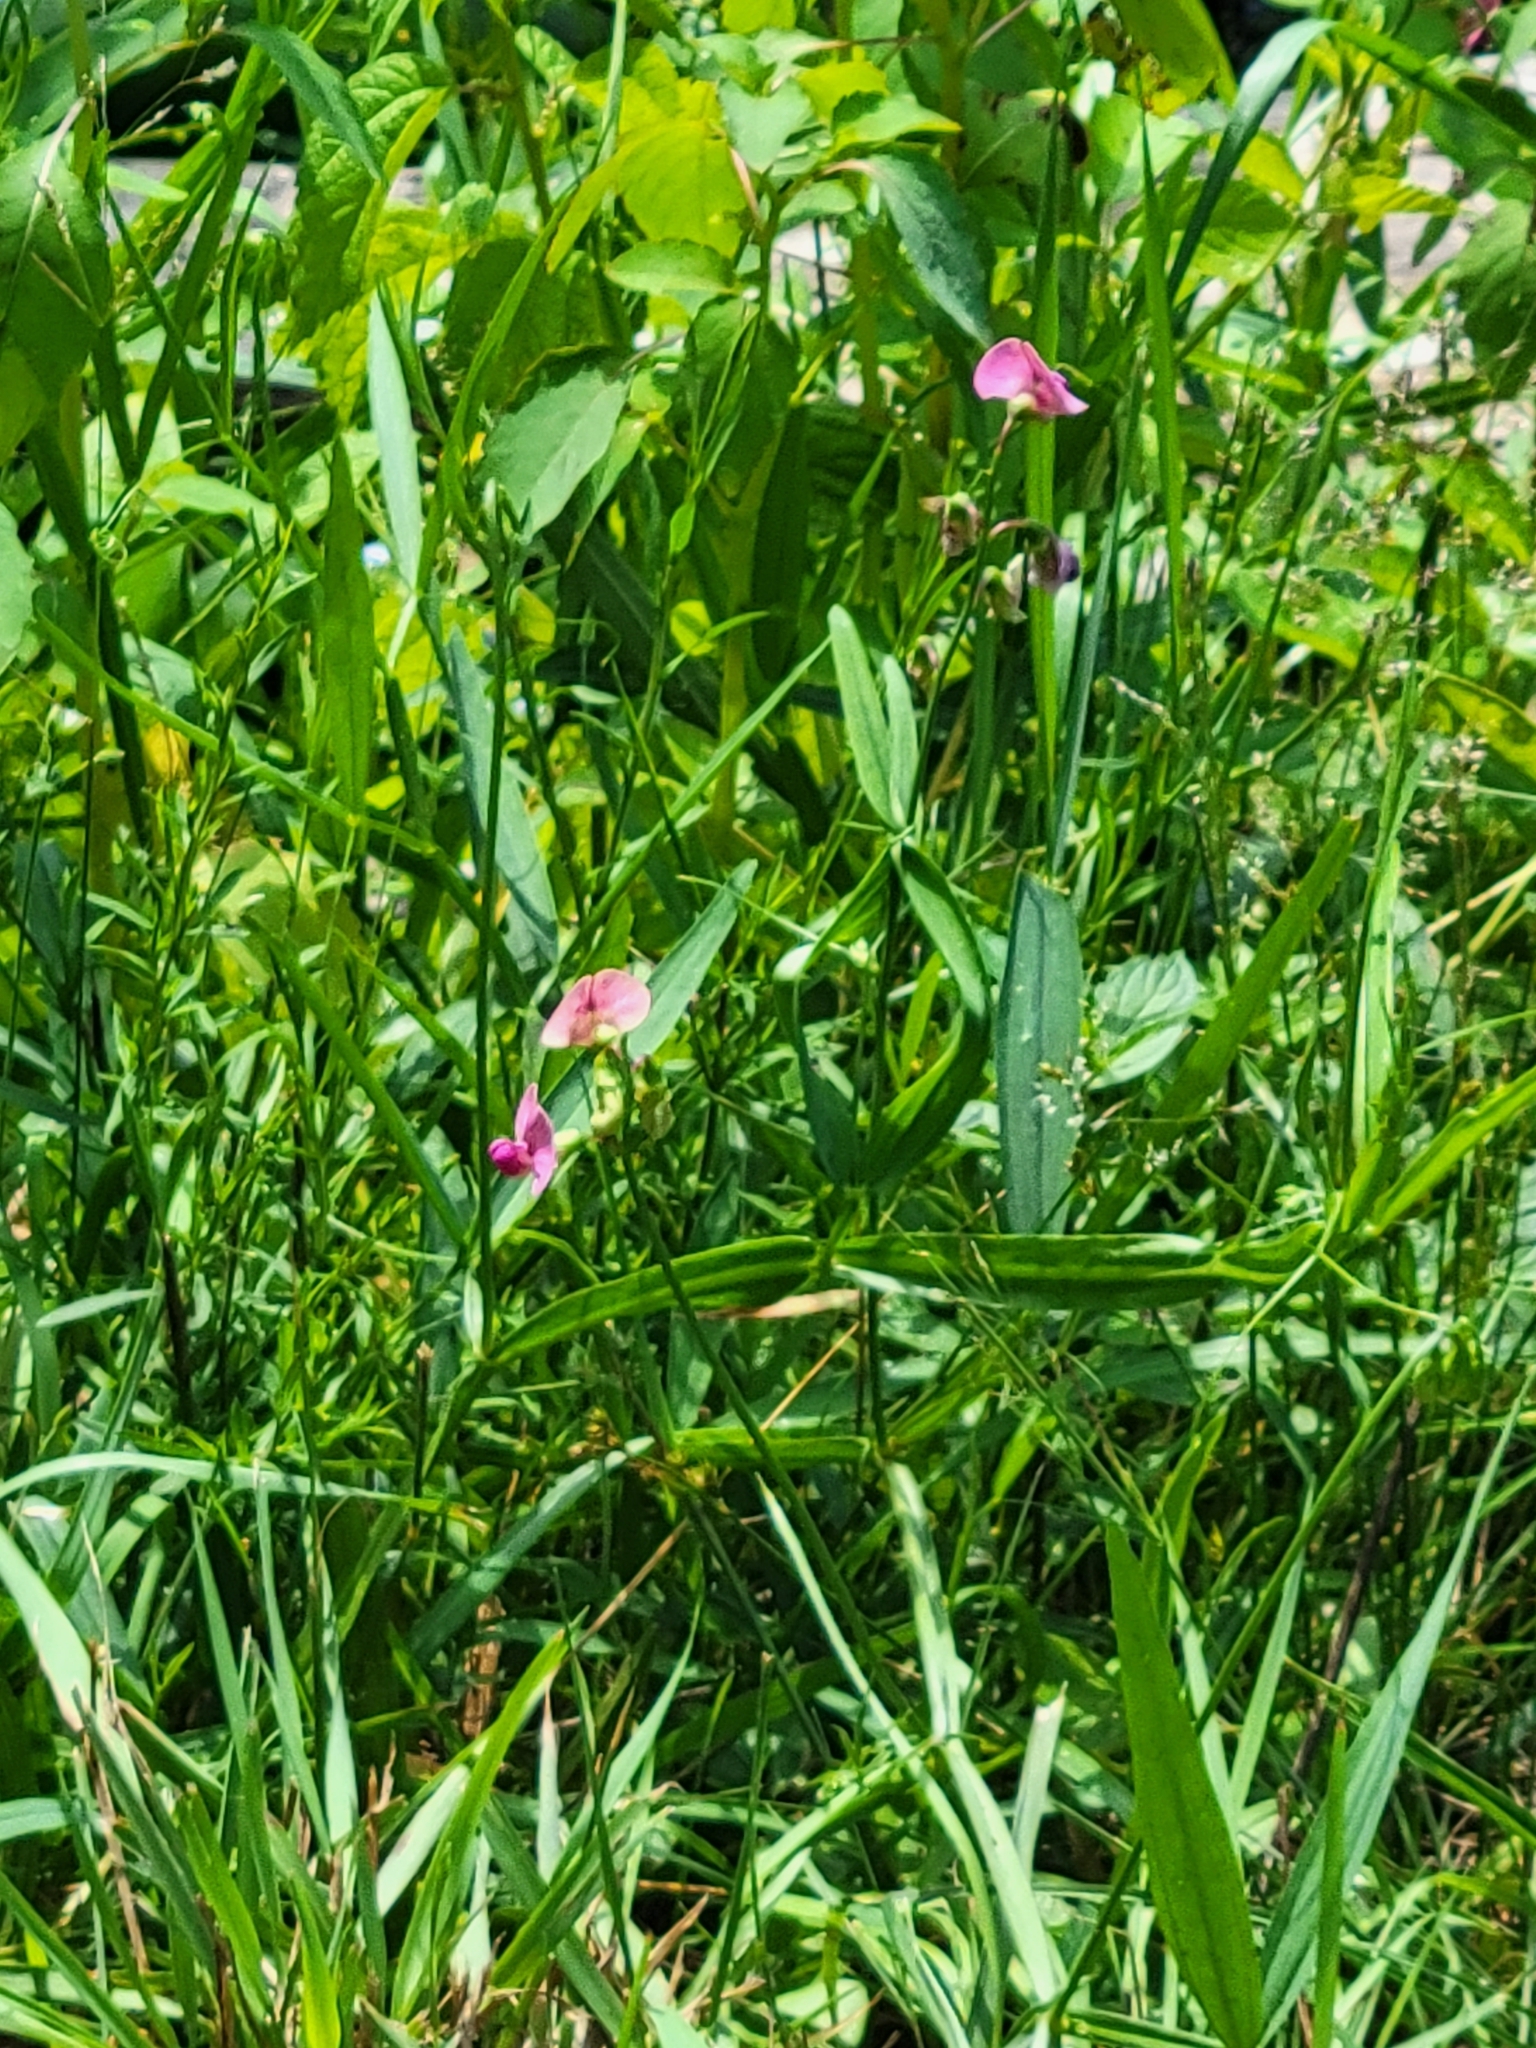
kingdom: Plantae
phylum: Tracheophyta
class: Magnoliopsida
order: Fabales
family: Fabaceae
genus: Lathyrus
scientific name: Lathyrus sylvestris
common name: Flat pea
